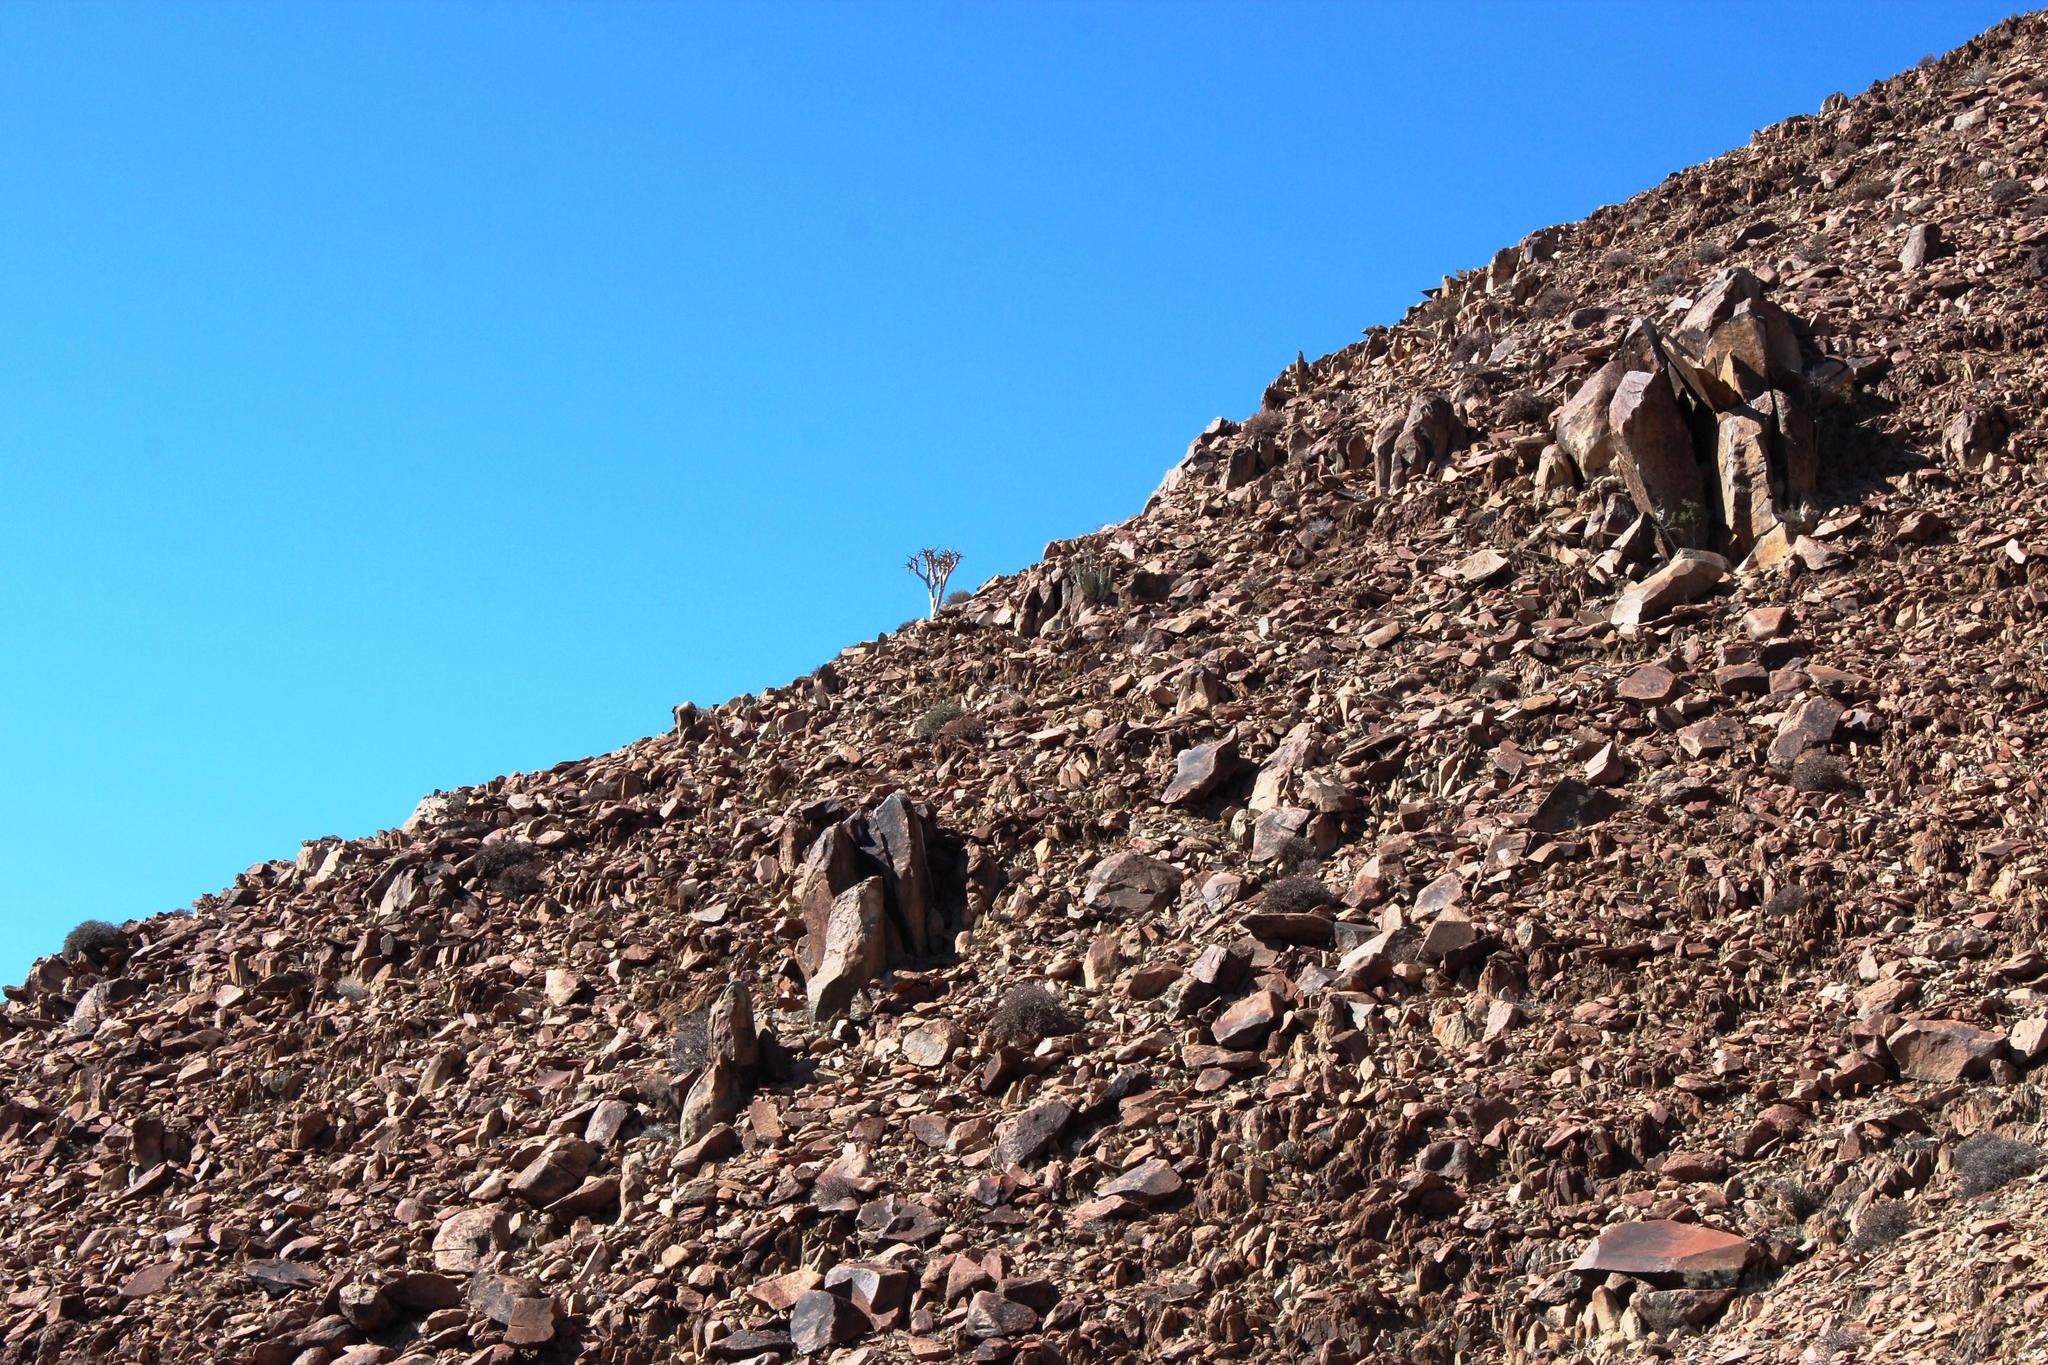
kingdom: Plantae
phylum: Tracheophyta
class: Liliopsida
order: Asparagales
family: Asphodelaceae
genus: Aloidendron
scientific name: Aloidendron dichotomum
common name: Quiver tree
